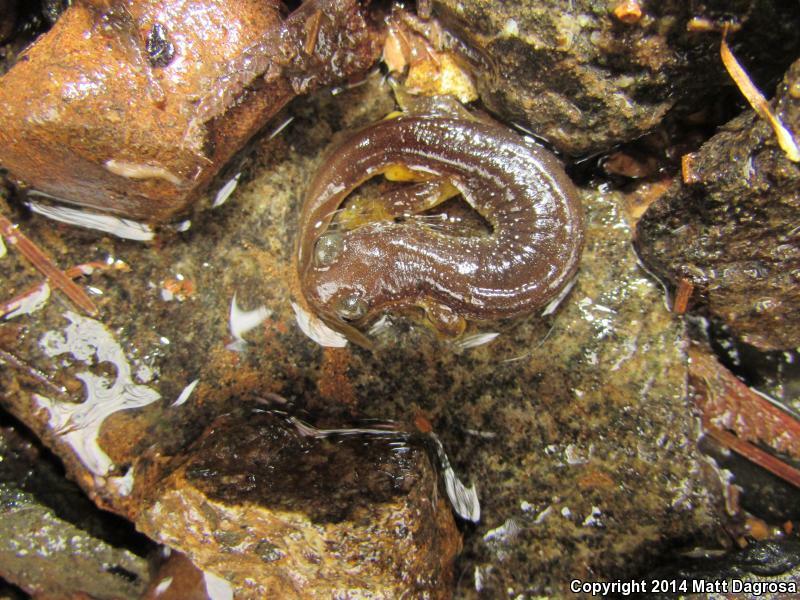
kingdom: Animalia
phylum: Chordata
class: Amphibia
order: Caudata
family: Rhyacotritonidae
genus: Rhyacotriton
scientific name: Rhyacotriton kezeri
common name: Columbia torrent salamander
